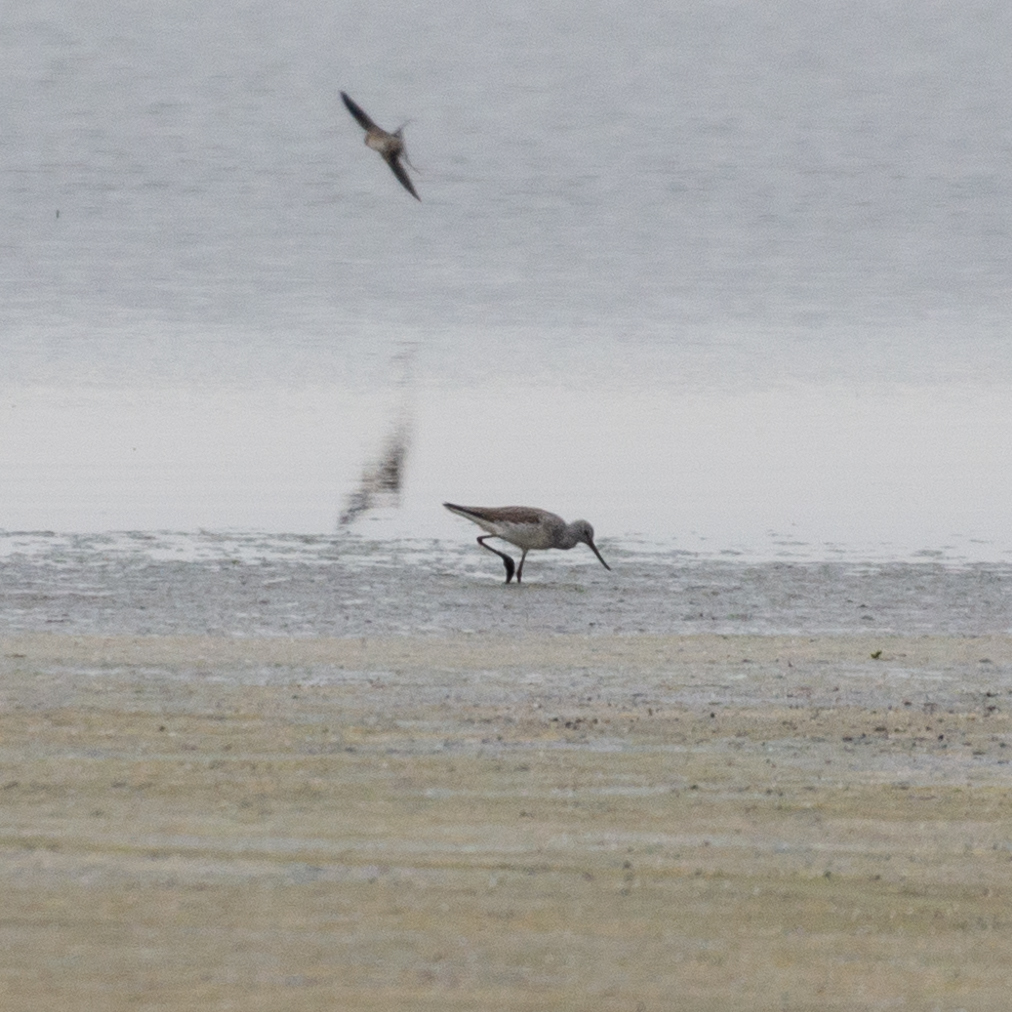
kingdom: Animalia
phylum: Chordata
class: Aves
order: Charadriiformes
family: Scolopacidae
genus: Tringa
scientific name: Tringa nebularia
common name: Common greenshank
